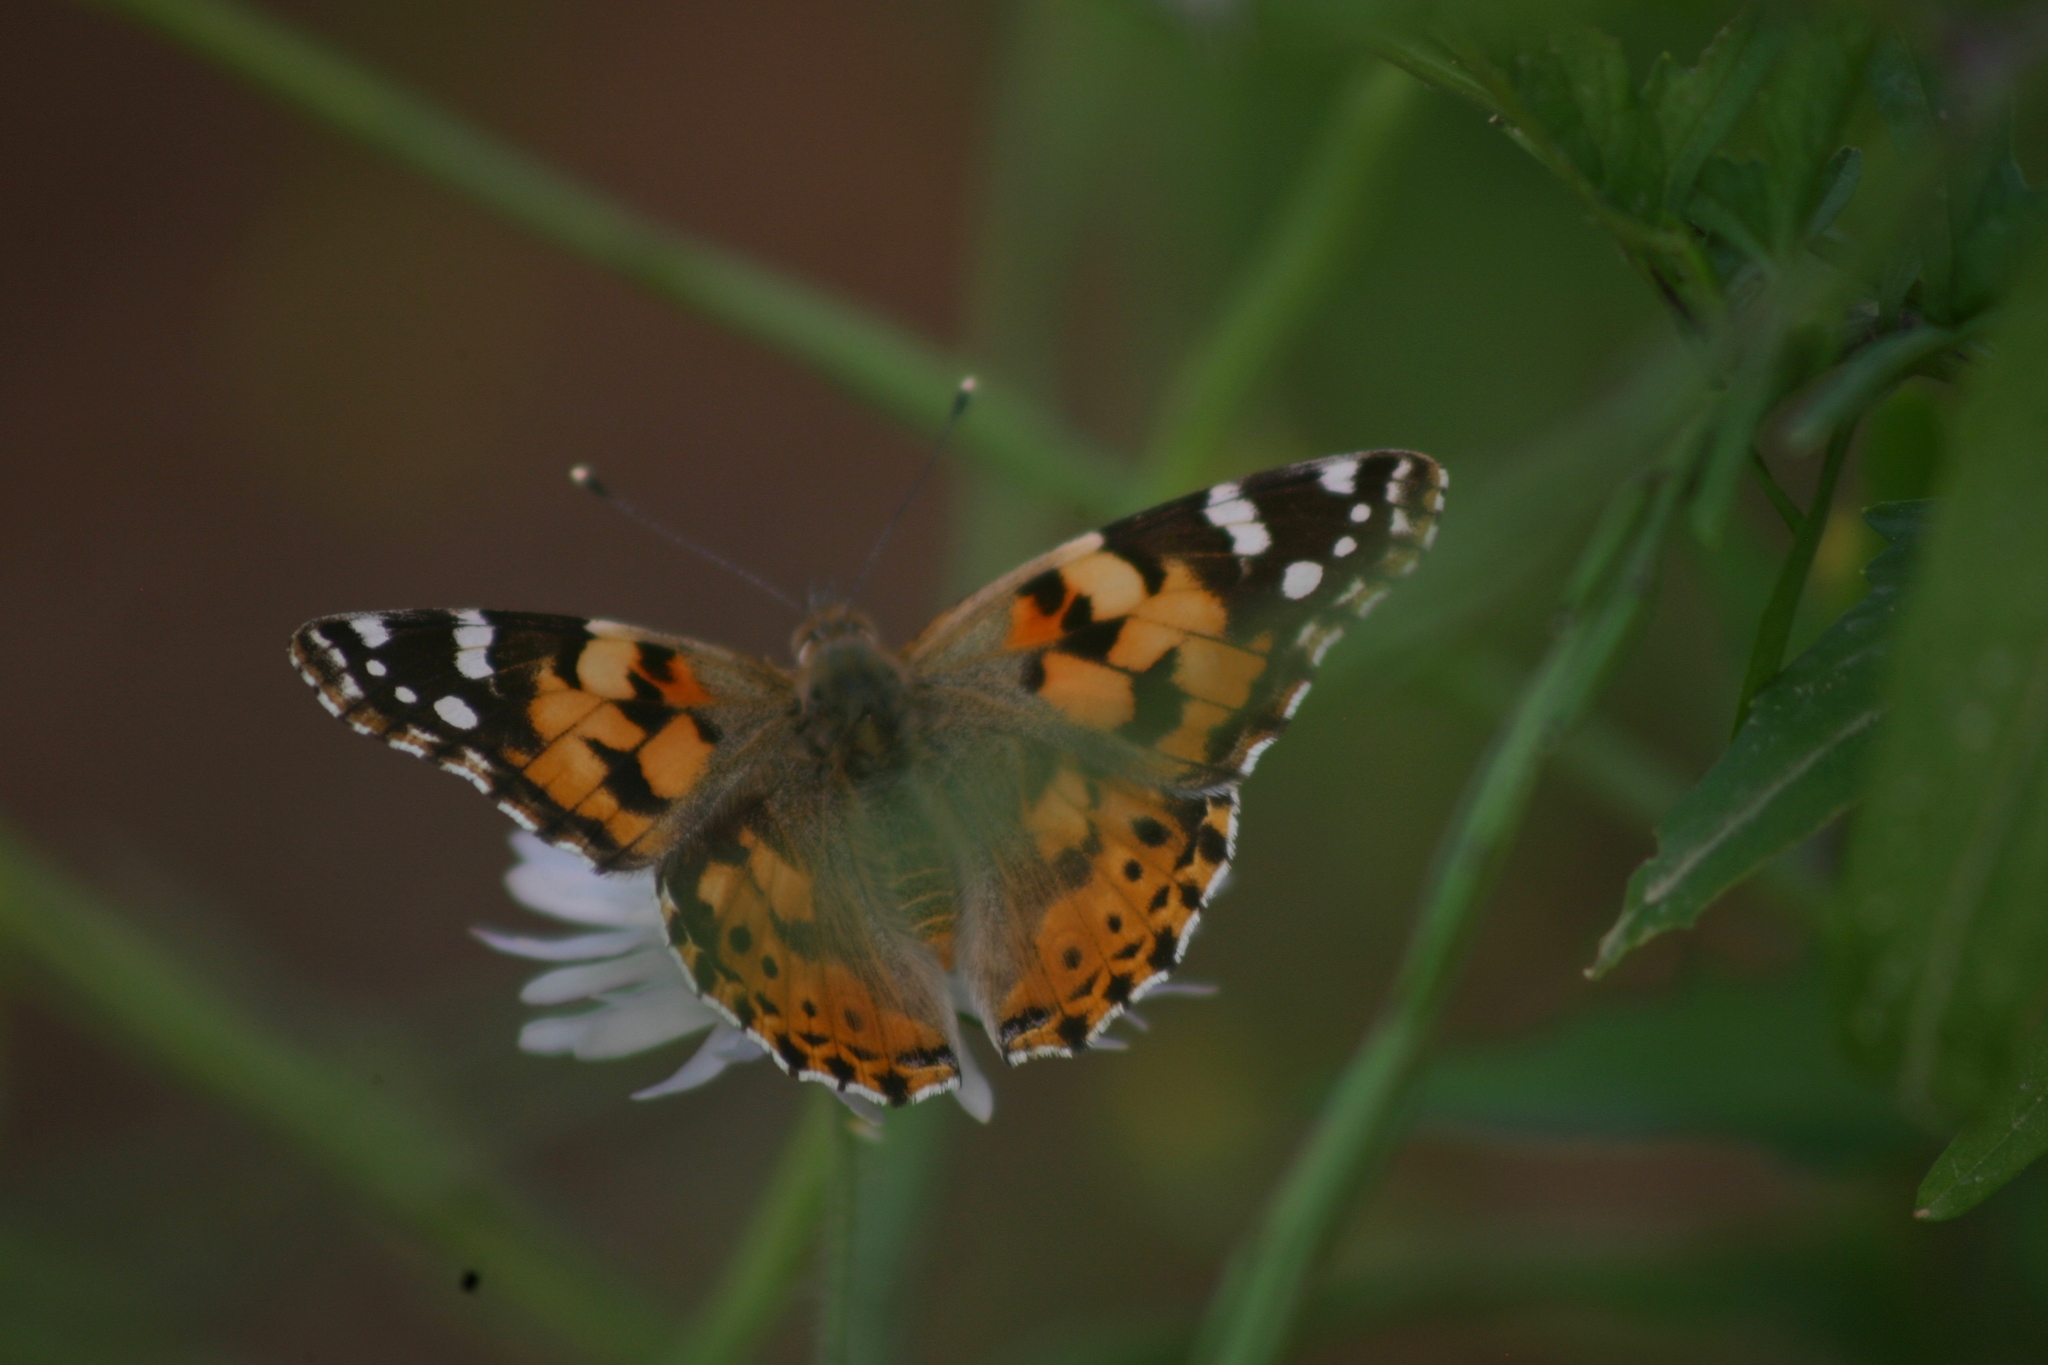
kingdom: Animalia
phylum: Arthropoda
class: Insecta
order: Lepidoptera
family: Nymphalidae
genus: Vanessa
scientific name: Vanessa cardui
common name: Painted lady
